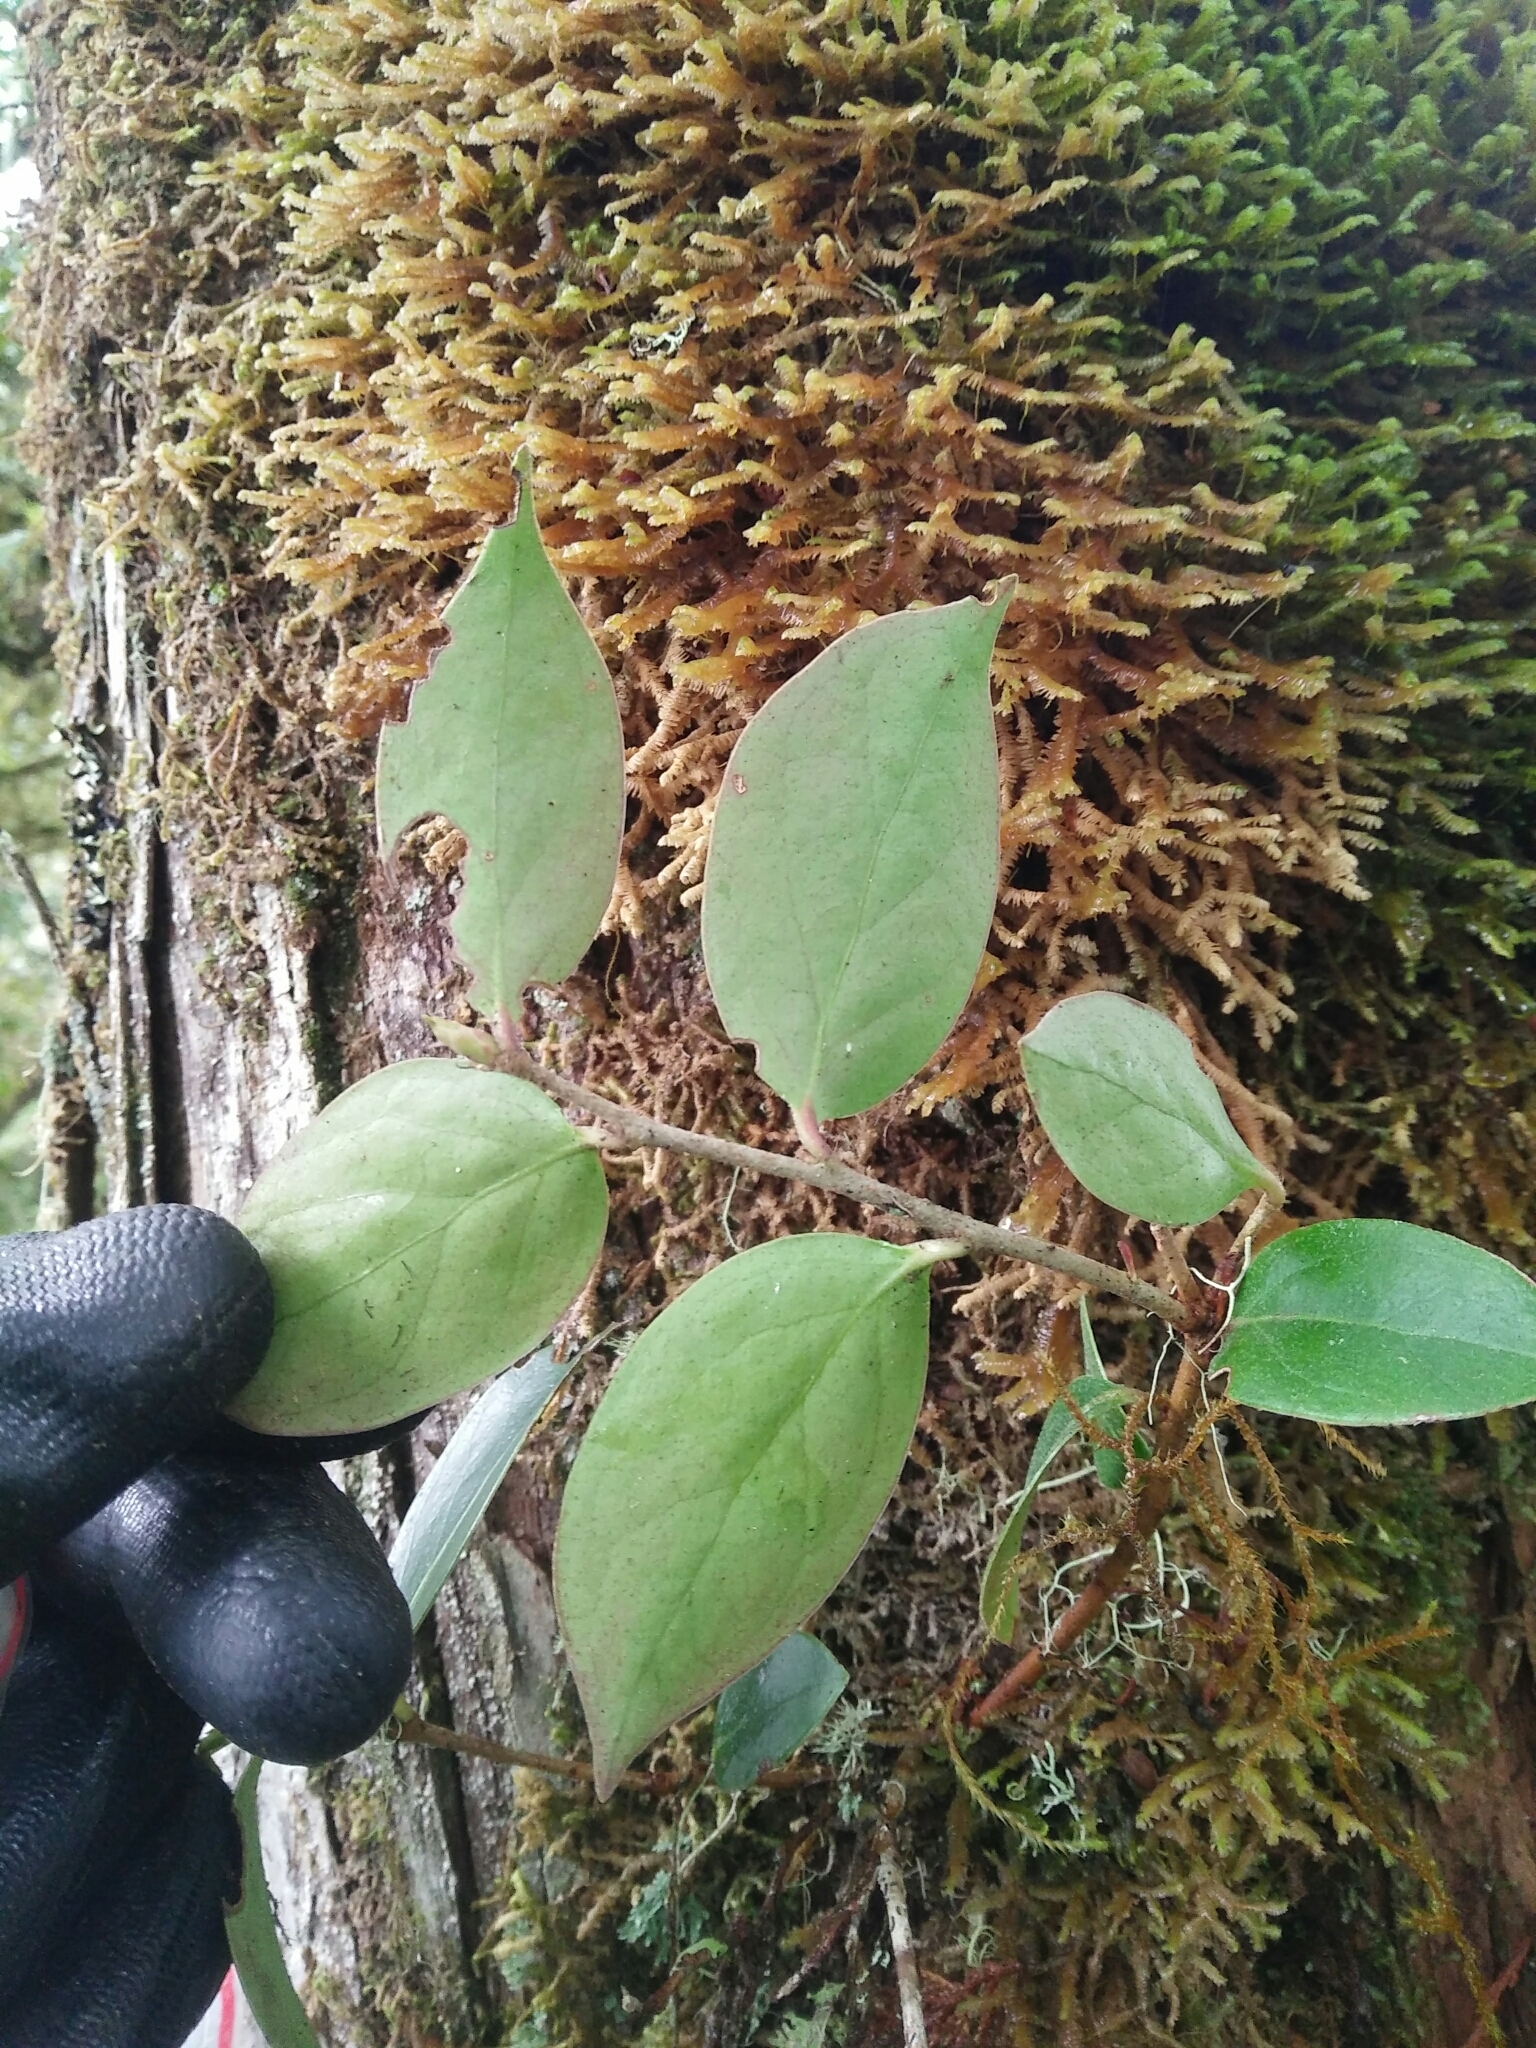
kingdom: Plantae
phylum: Tracheophyta
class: Magnoliopsida
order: Ericales
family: Ericaceae
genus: Vaccinium
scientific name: Vaccinium dunalianum
